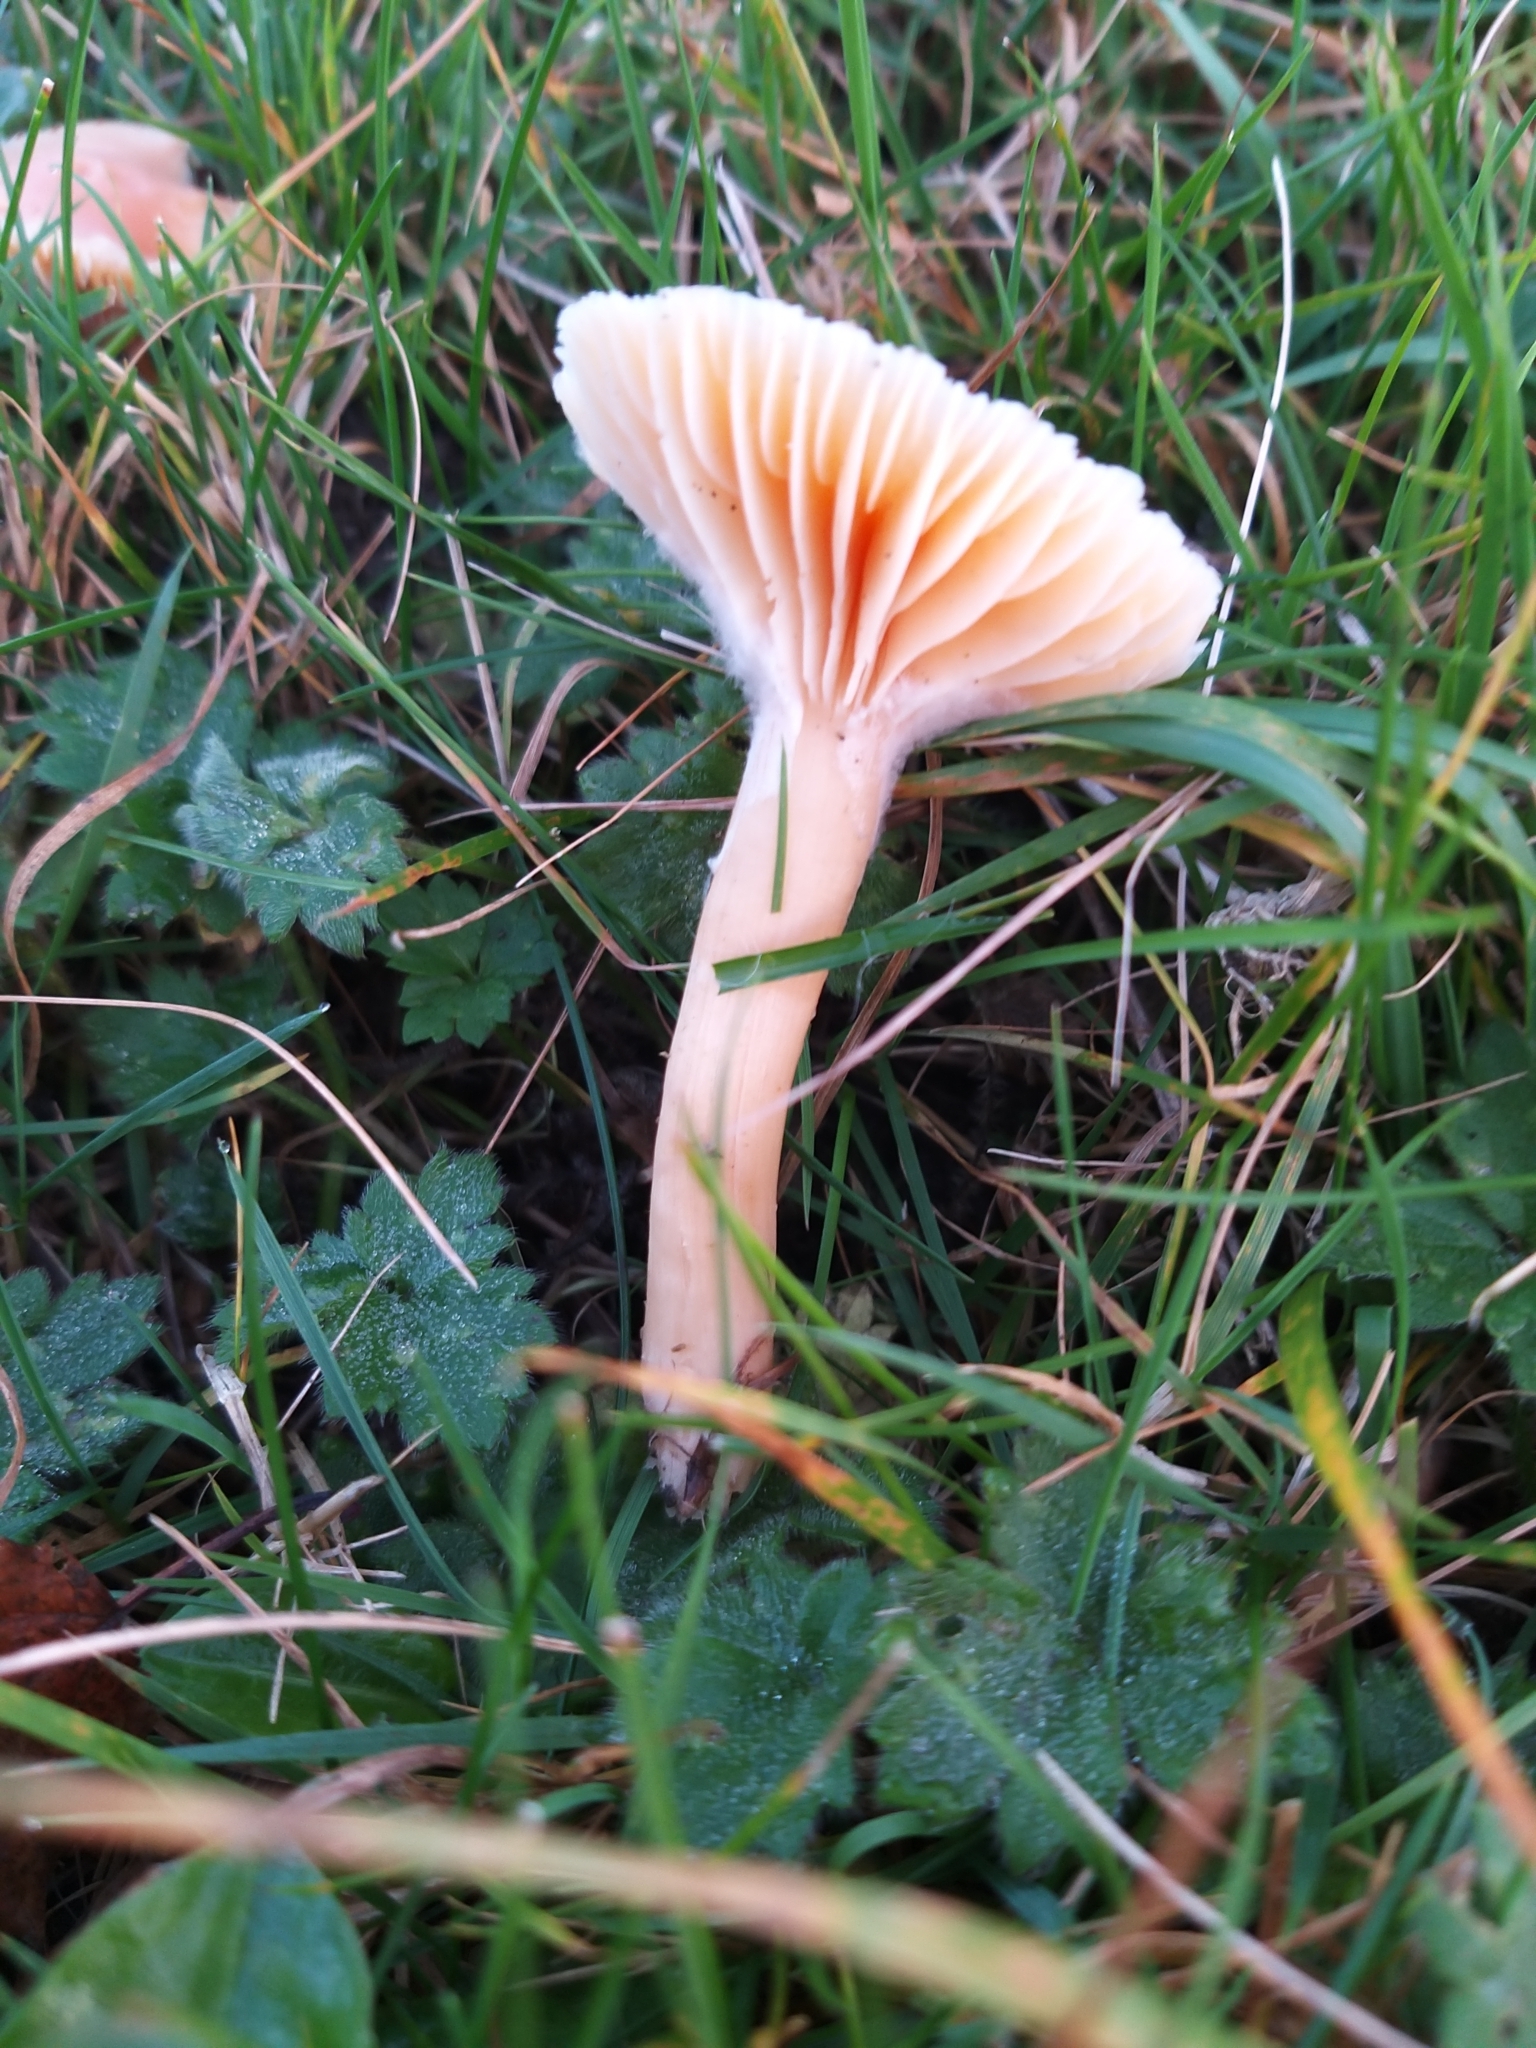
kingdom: Fungi
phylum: Basidiomycota
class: Agaricomycetes
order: Agaricales
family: Hygrophoraceae
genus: Cuphophyllus
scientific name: Cuphophyllus pratensis
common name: Meadow waxcap
